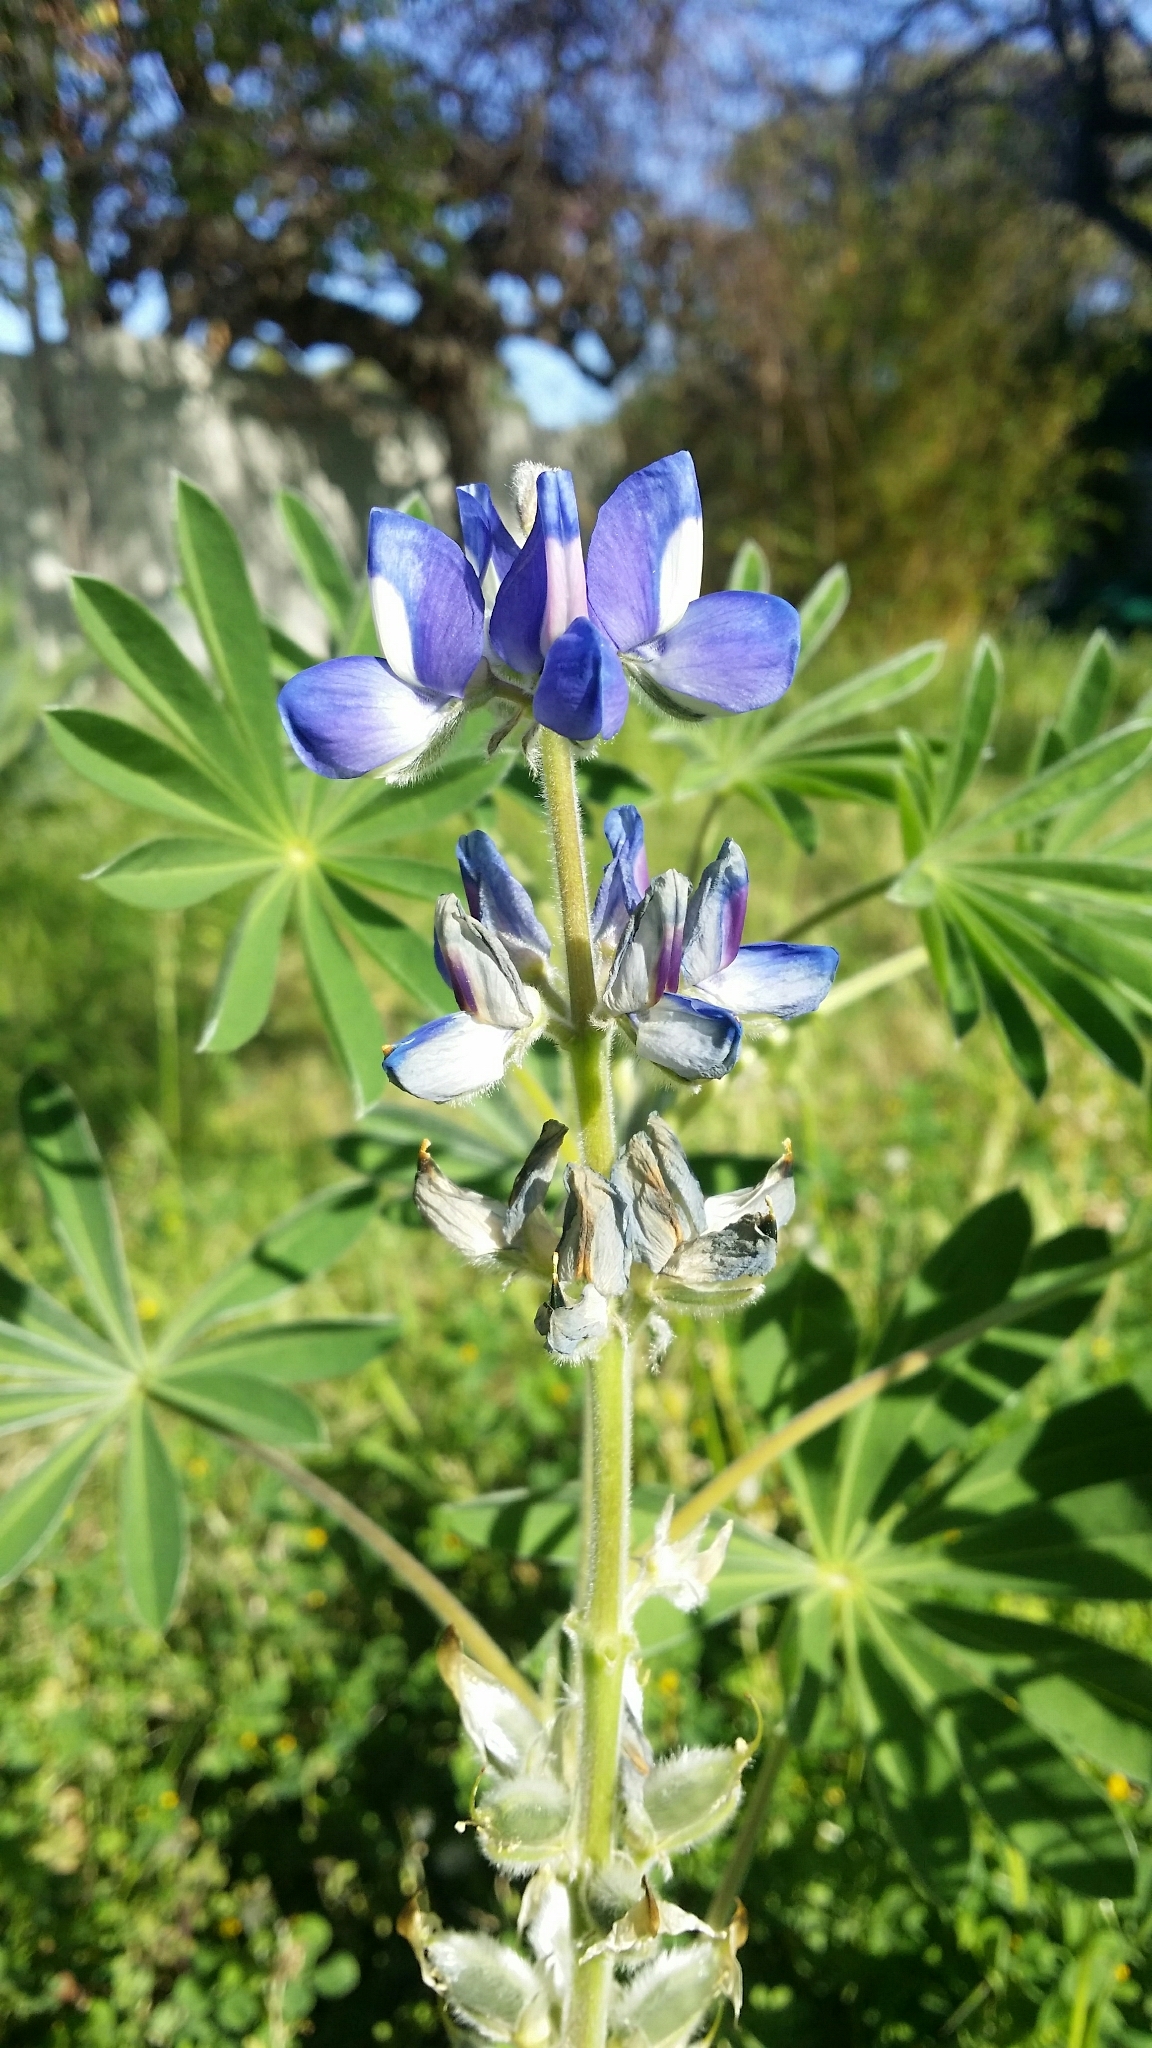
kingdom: Plantae
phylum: Tracheophyta
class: Magnoliopsida
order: Fabales
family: Fabaceae
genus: Lupinus
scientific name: Lupinus cosentinii
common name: Hairy blue lupin
